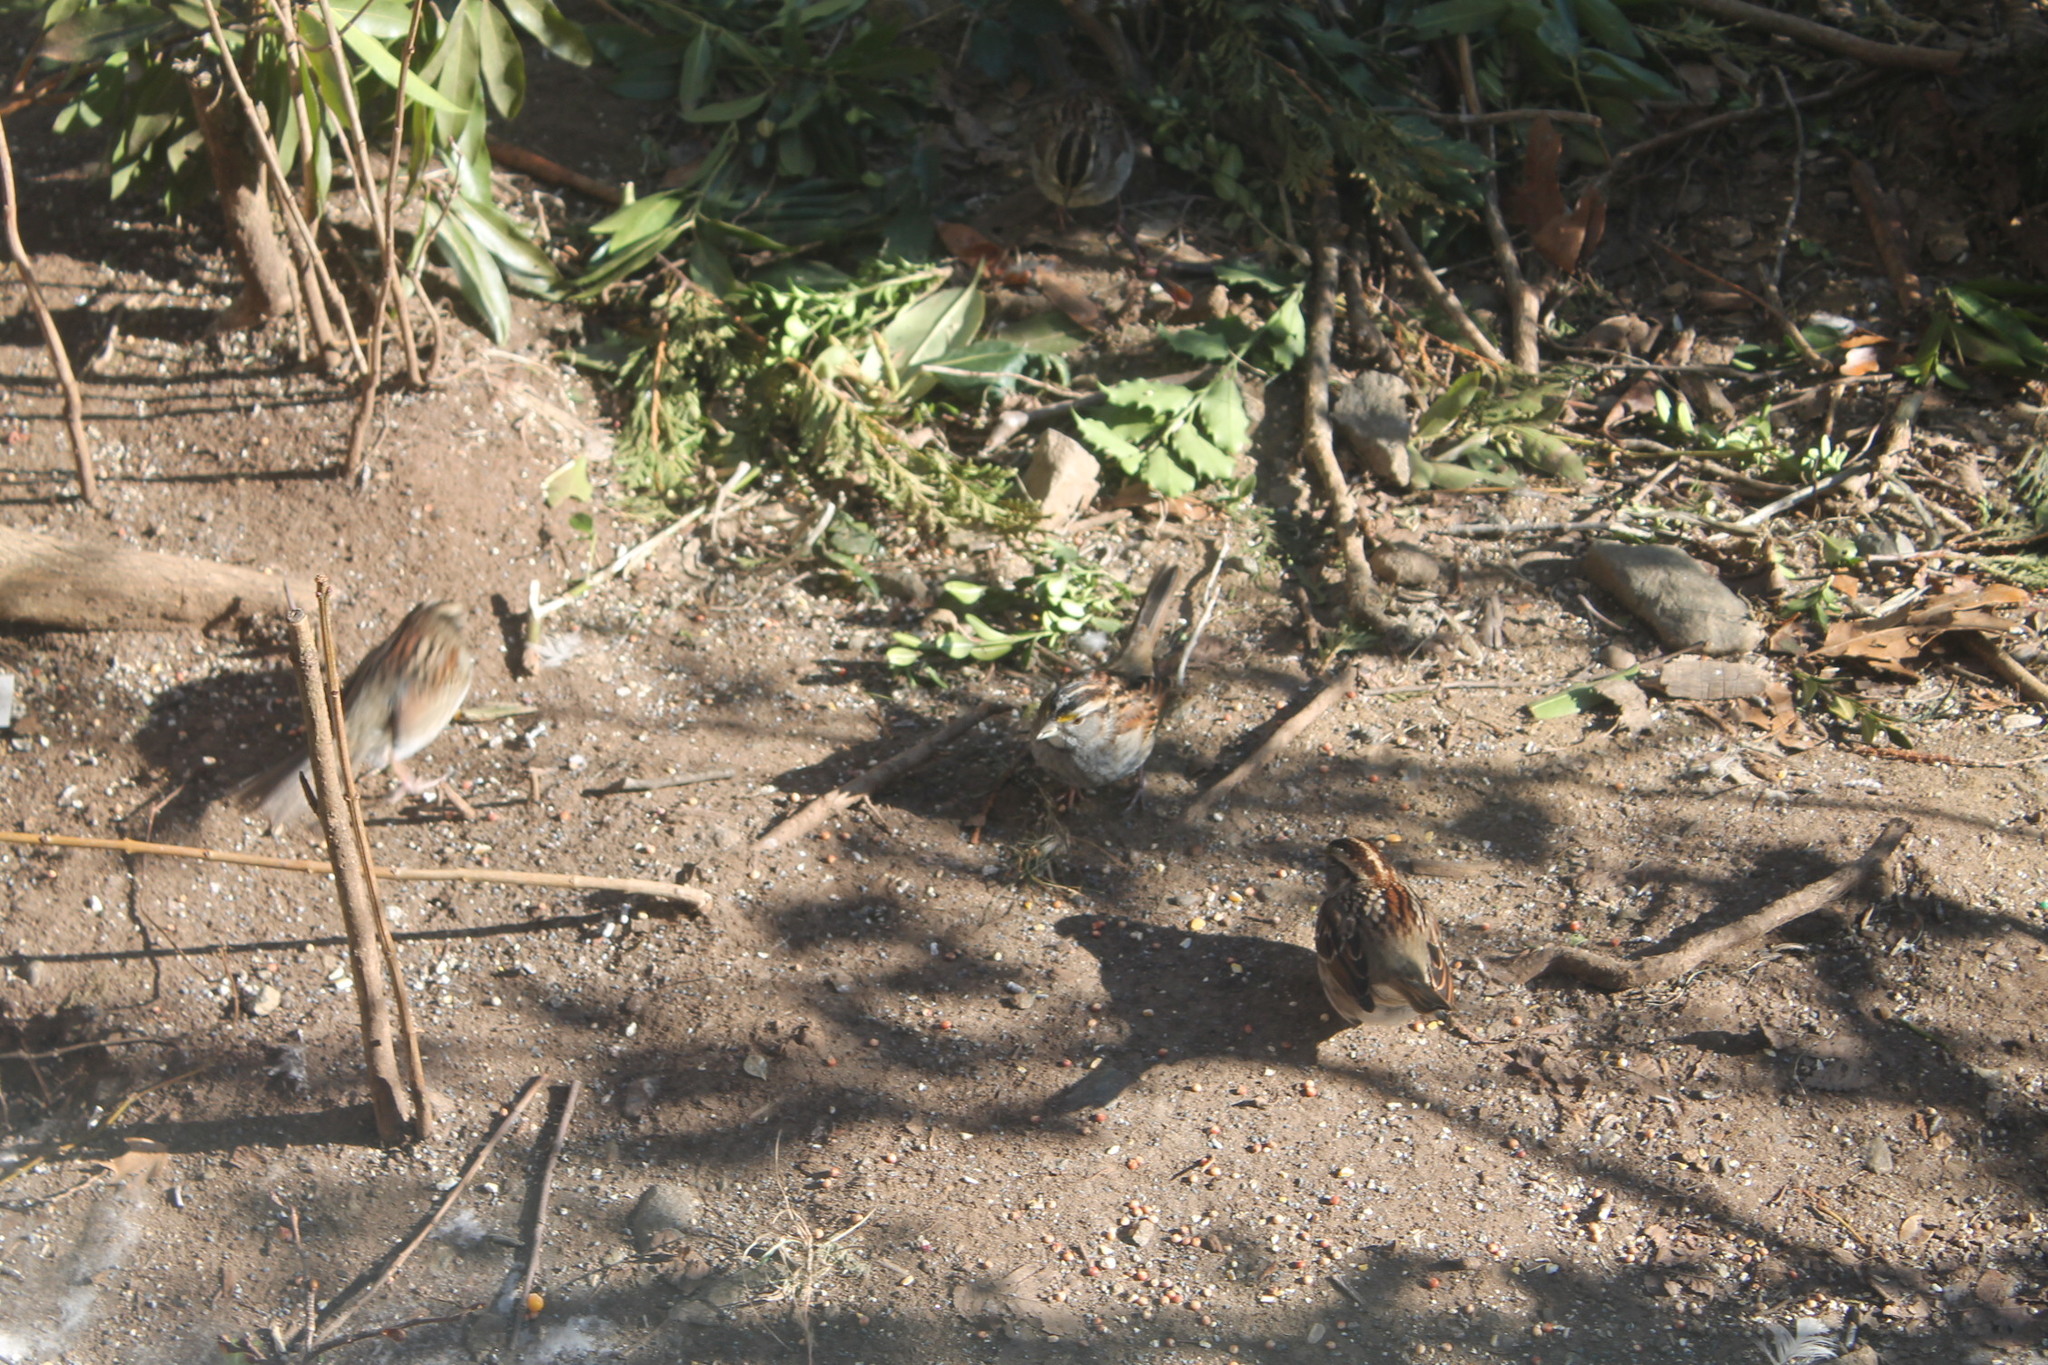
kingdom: Animalia
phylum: Chordata
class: Aves
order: Passeriformes
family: Passerellidae
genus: Zonotrichia
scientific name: Zonotrichia albicollis
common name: White-throated sparrow
